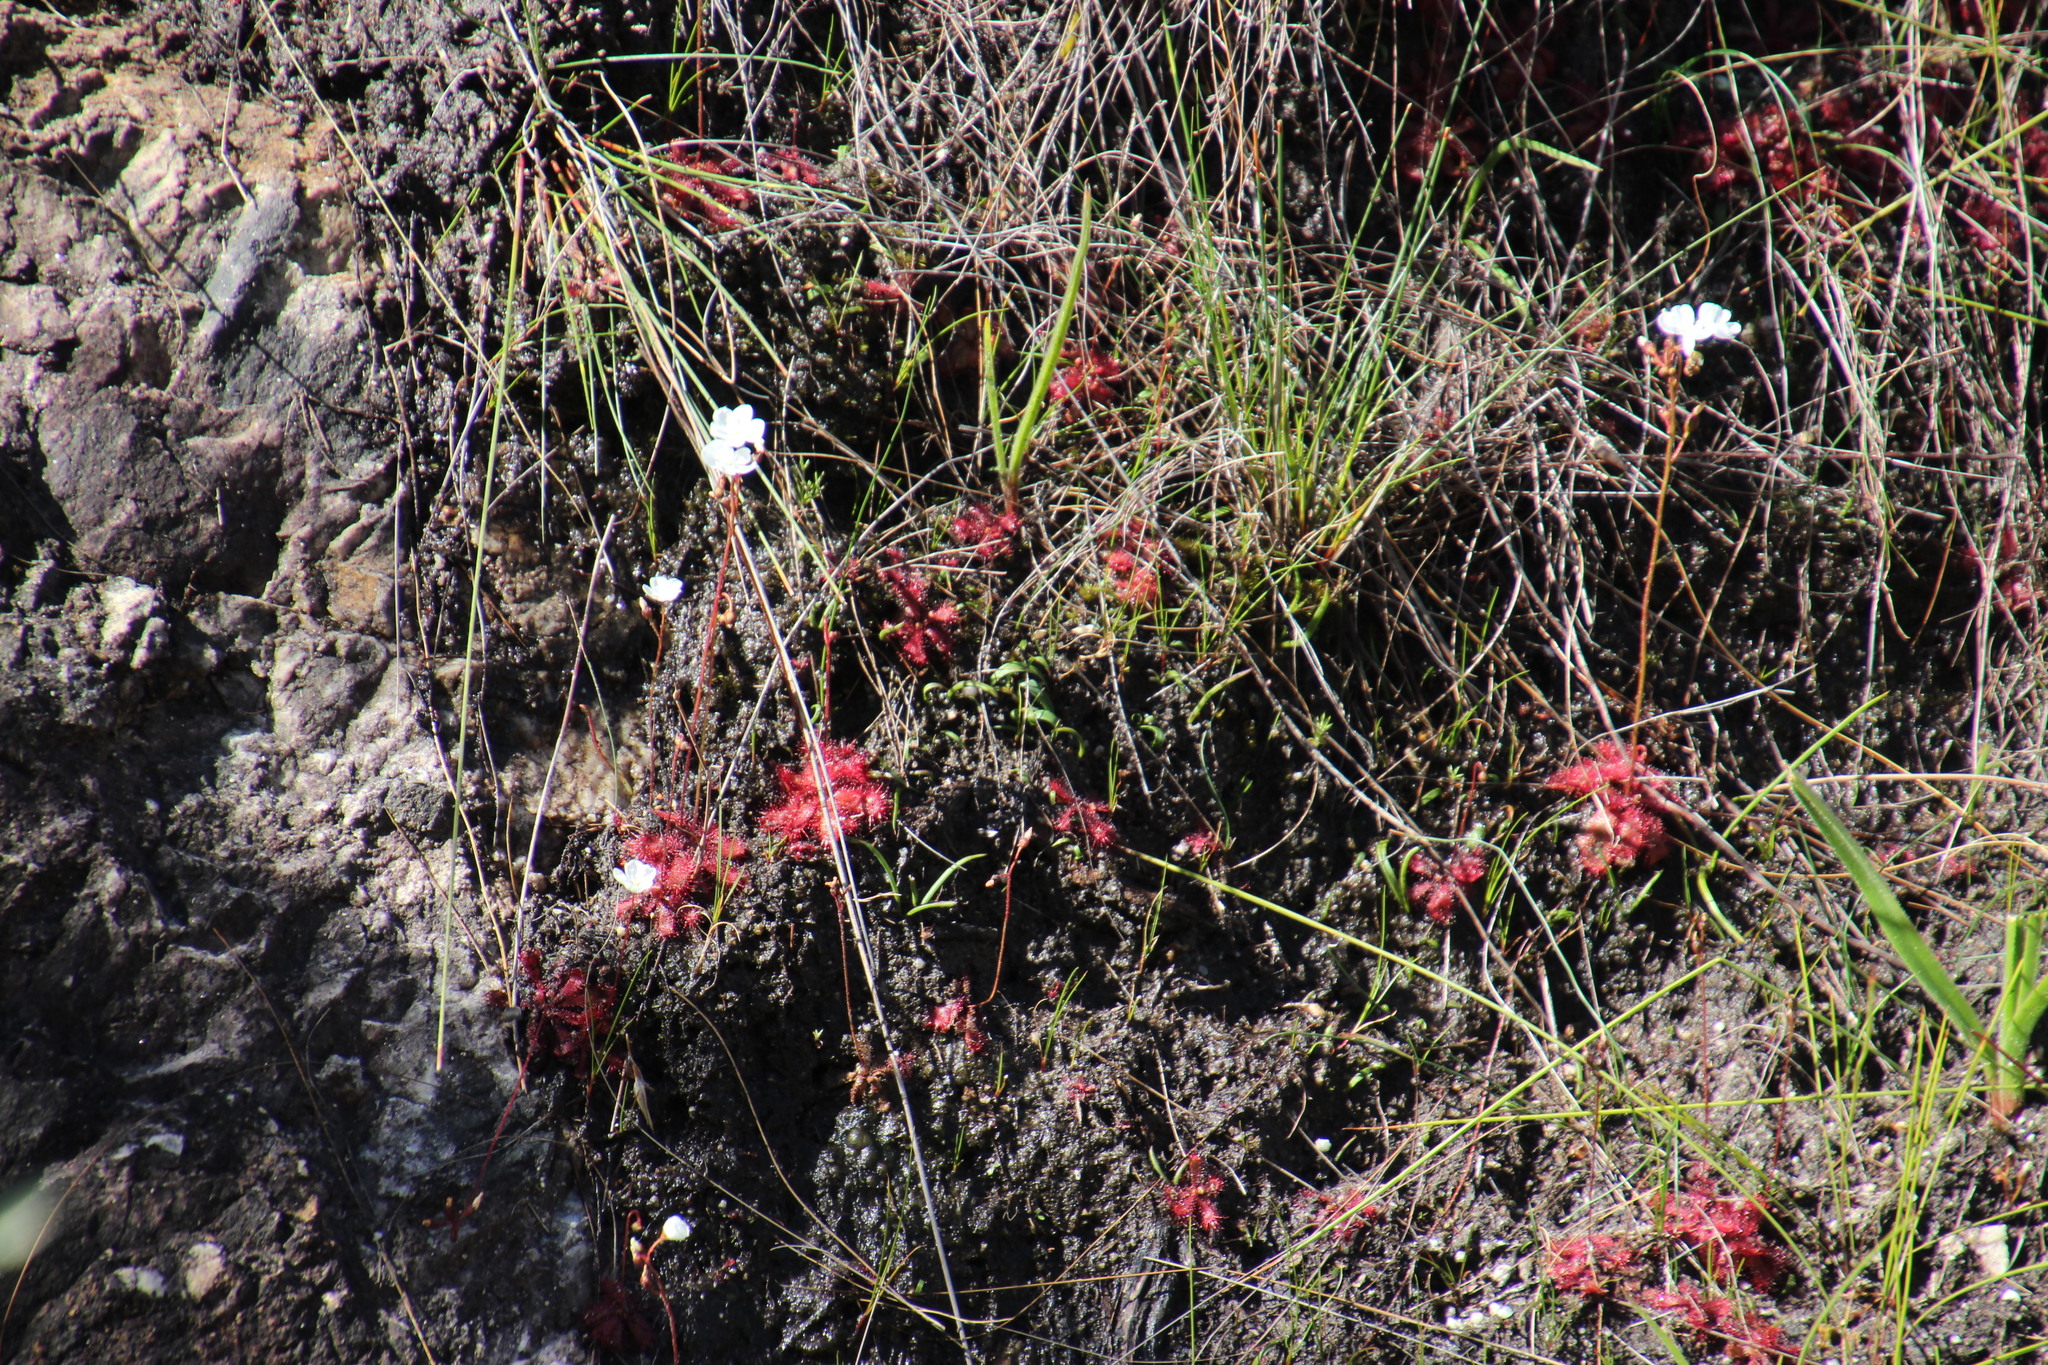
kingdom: Plantae
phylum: Tracheophyta
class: Magnoliopsida
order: Caryophyllales
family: Droseraceae
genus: Drosera
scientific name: Drosera trinervia
